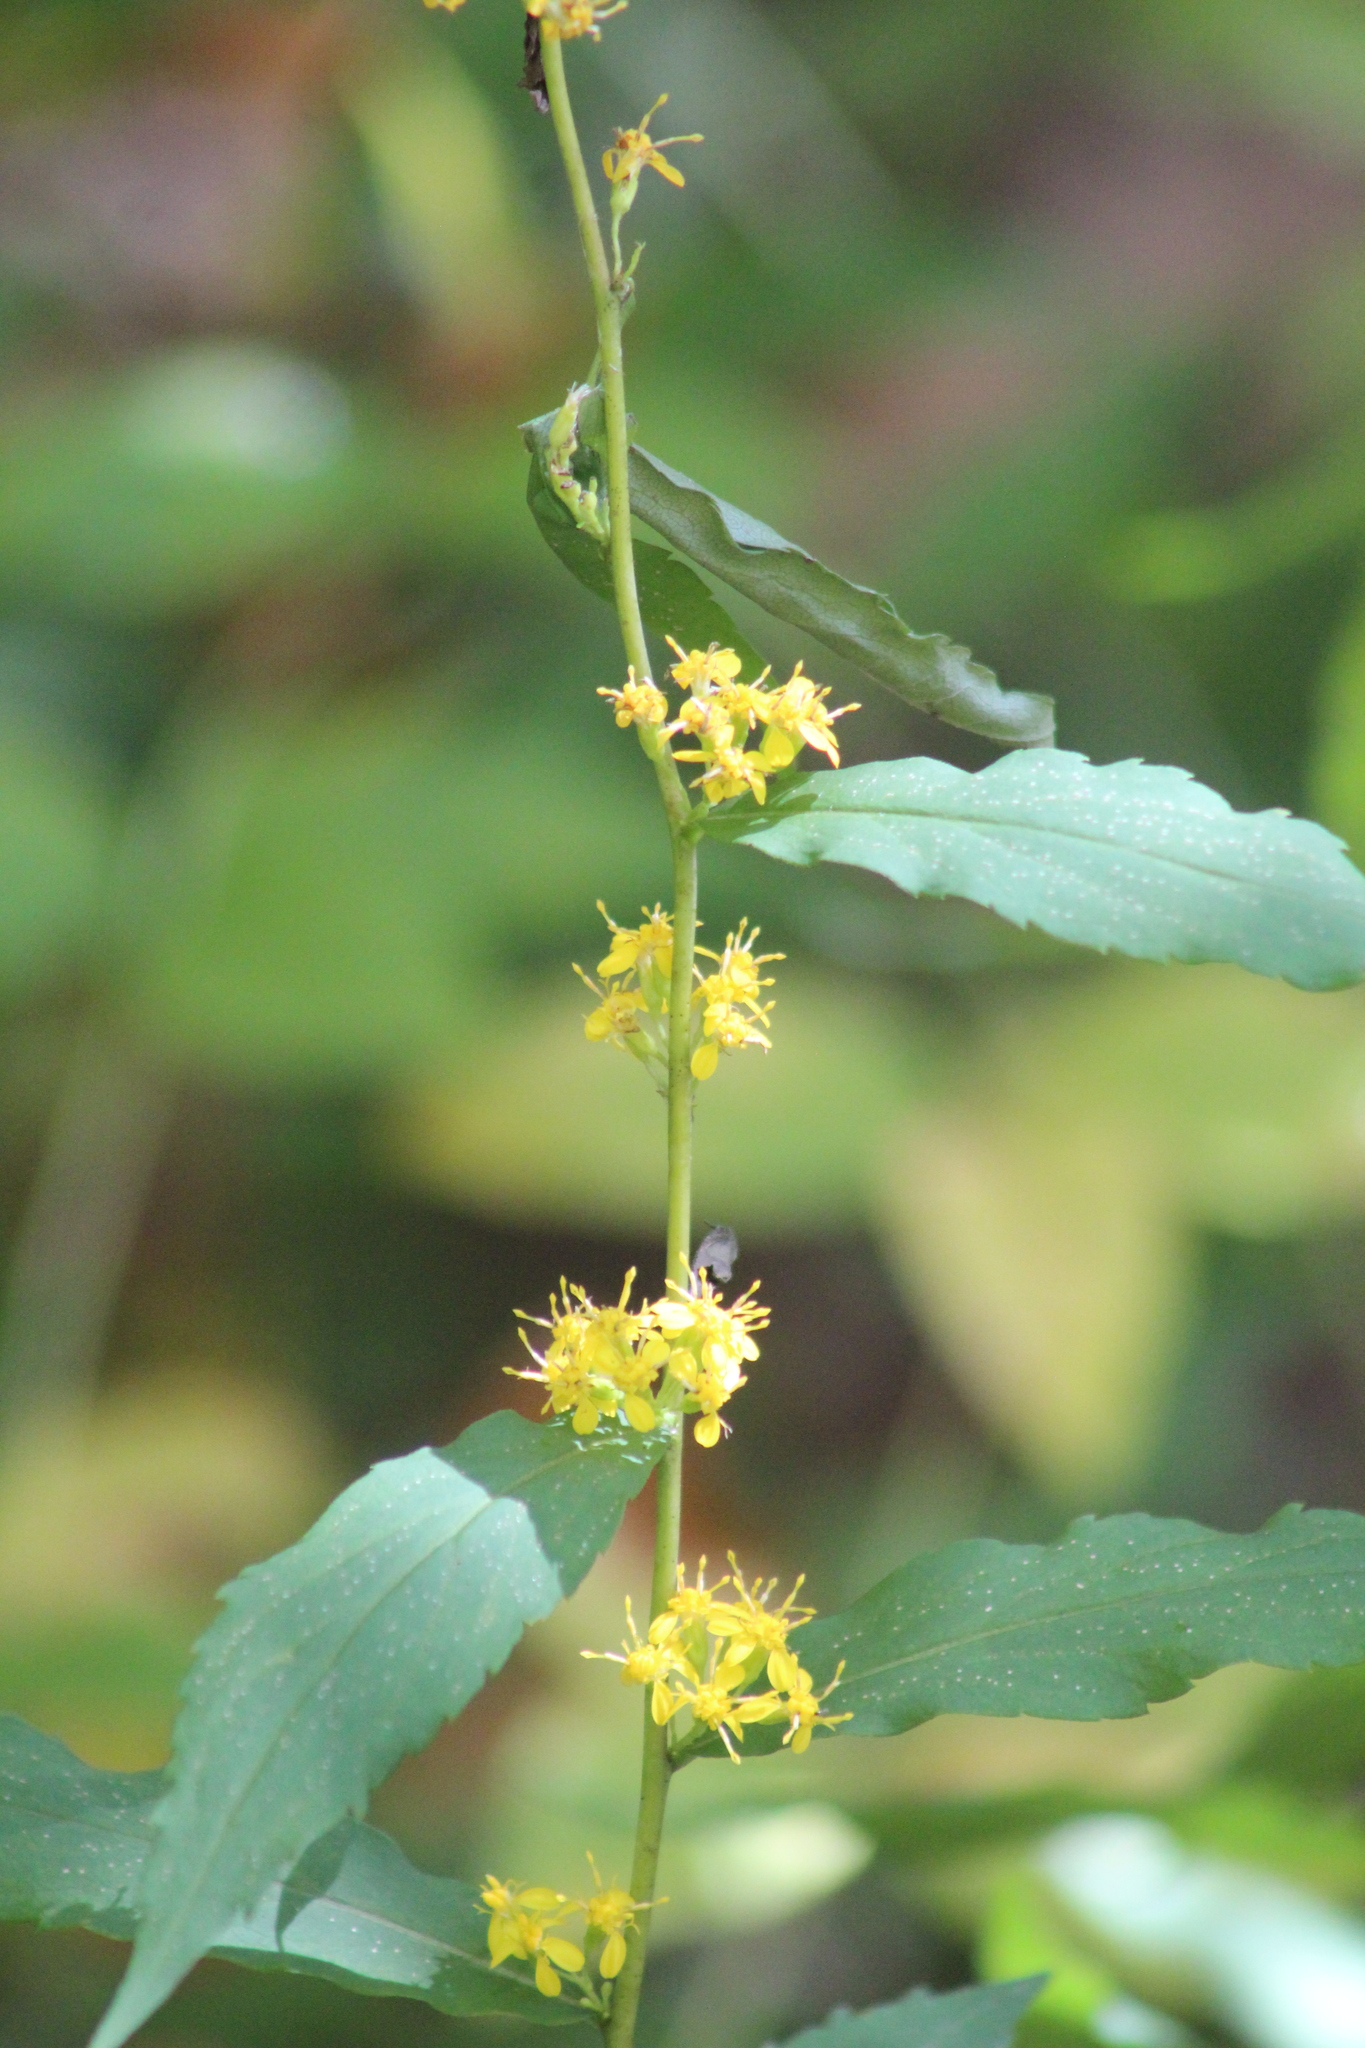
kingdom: Plantae
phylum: Tracheophyta
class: Magnoliopsida
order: Asterales
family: Asteraceae
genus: Solidago
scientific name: Solidago caesia
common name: Woodland goldenrod
